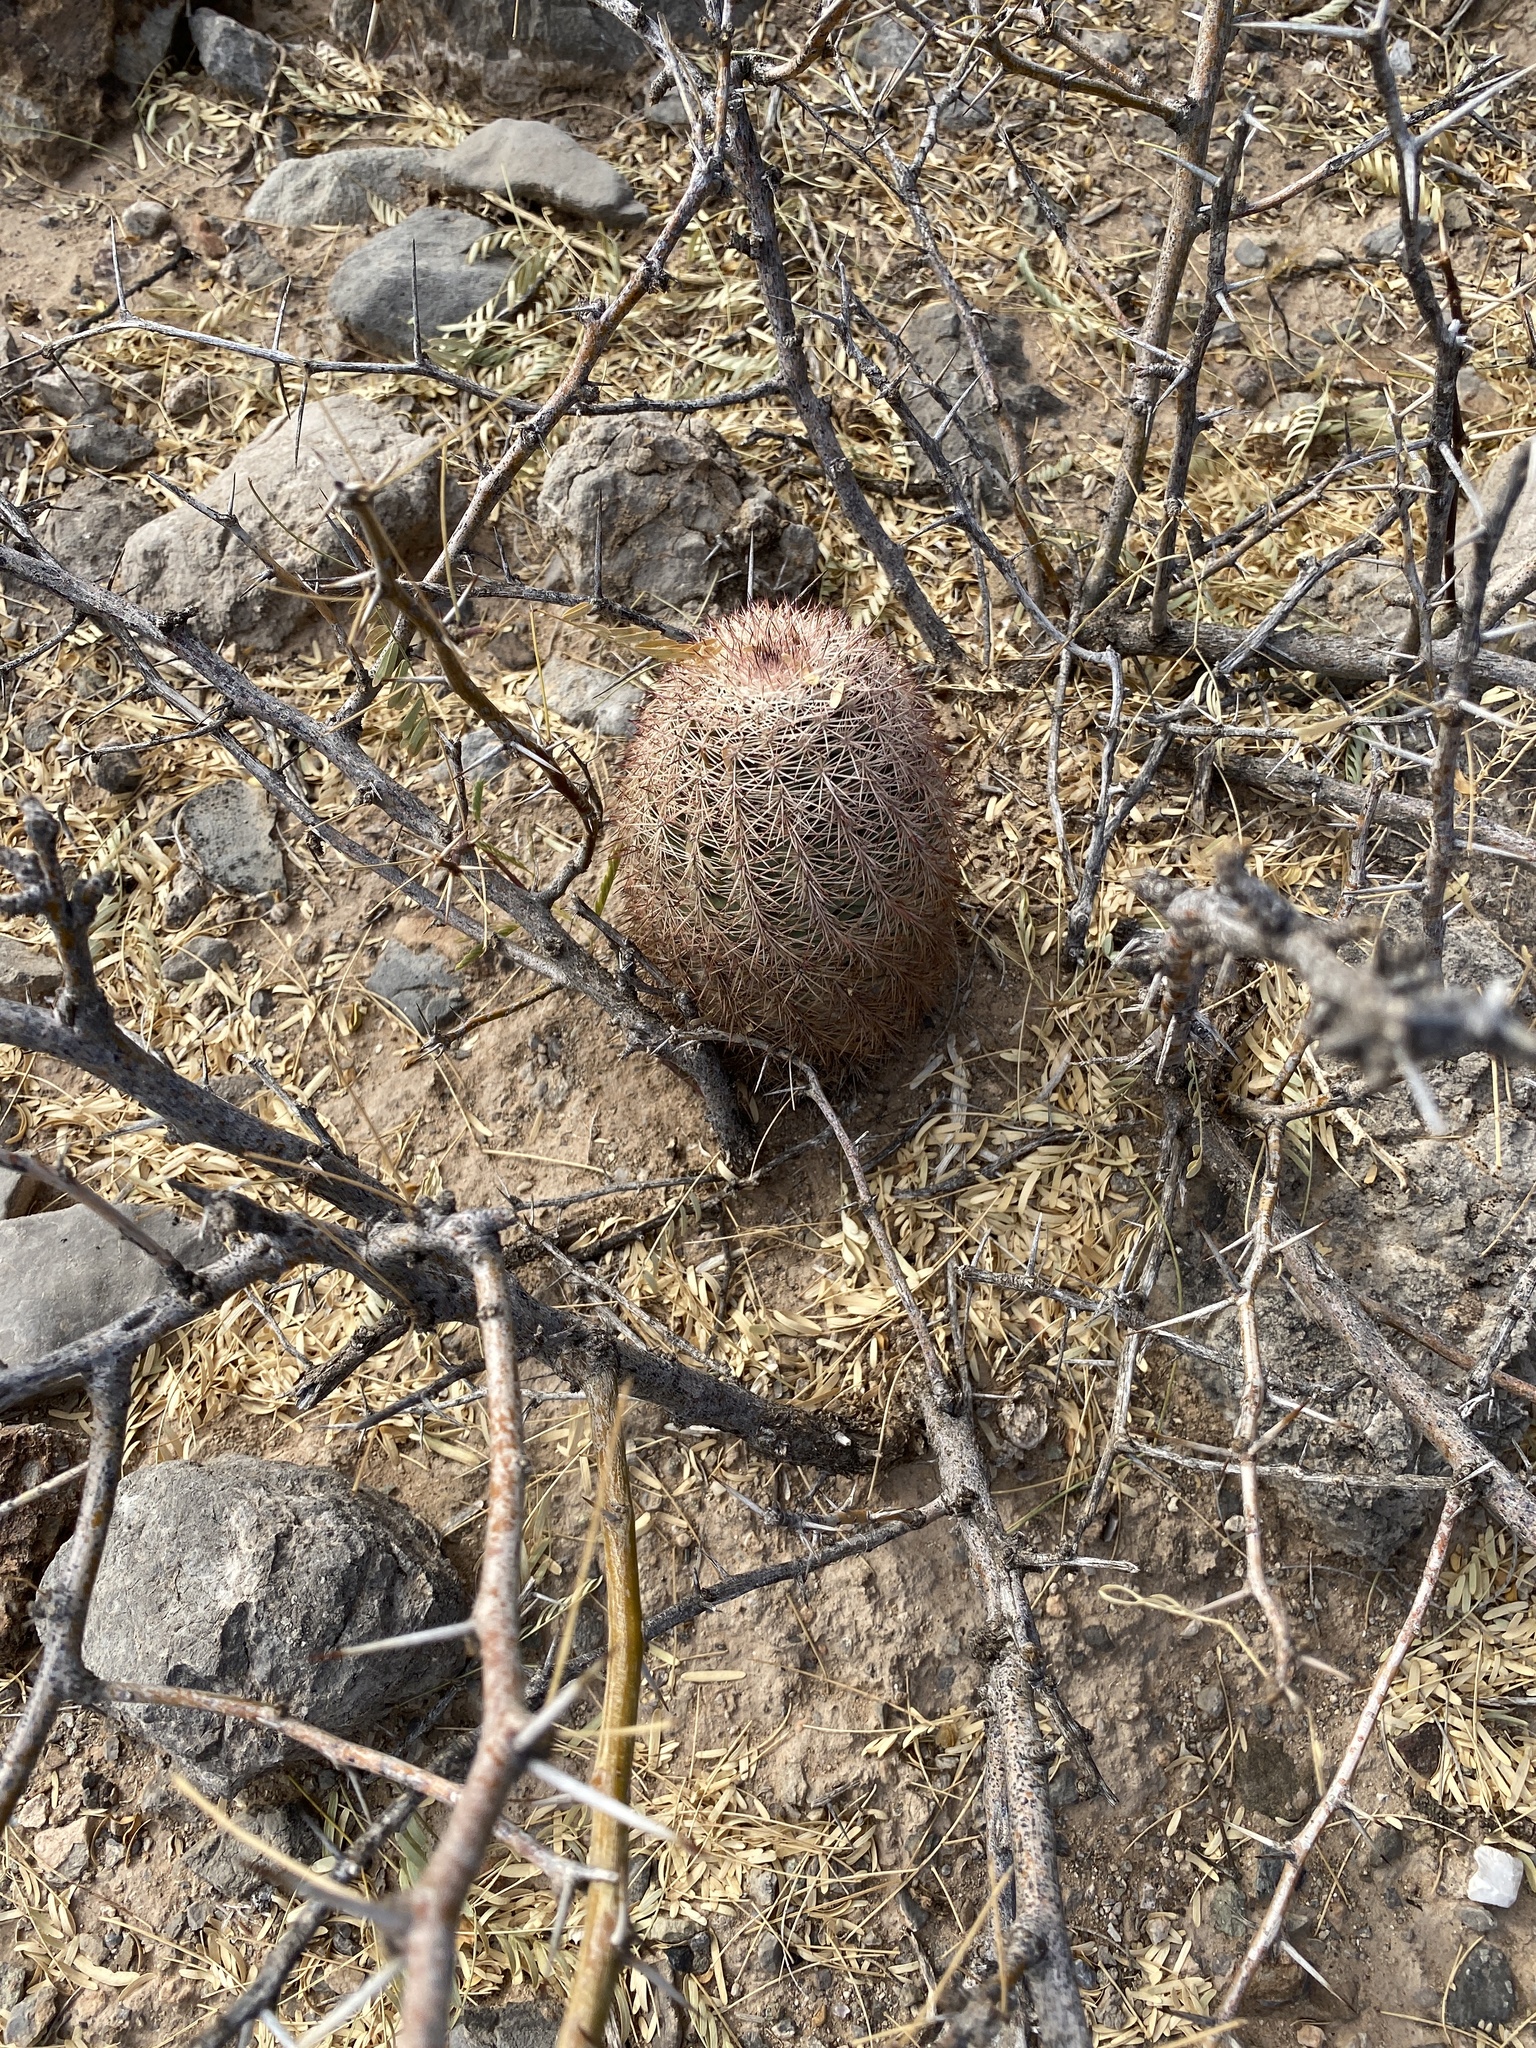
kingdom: Plantae
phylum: Tracheophyta
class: Magnoliopsida
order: Caryophyllales
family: Cactaceae
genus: Echinocereus
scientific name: Echinocereus dasyacanthus
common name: Spiny hedgehog cactus
